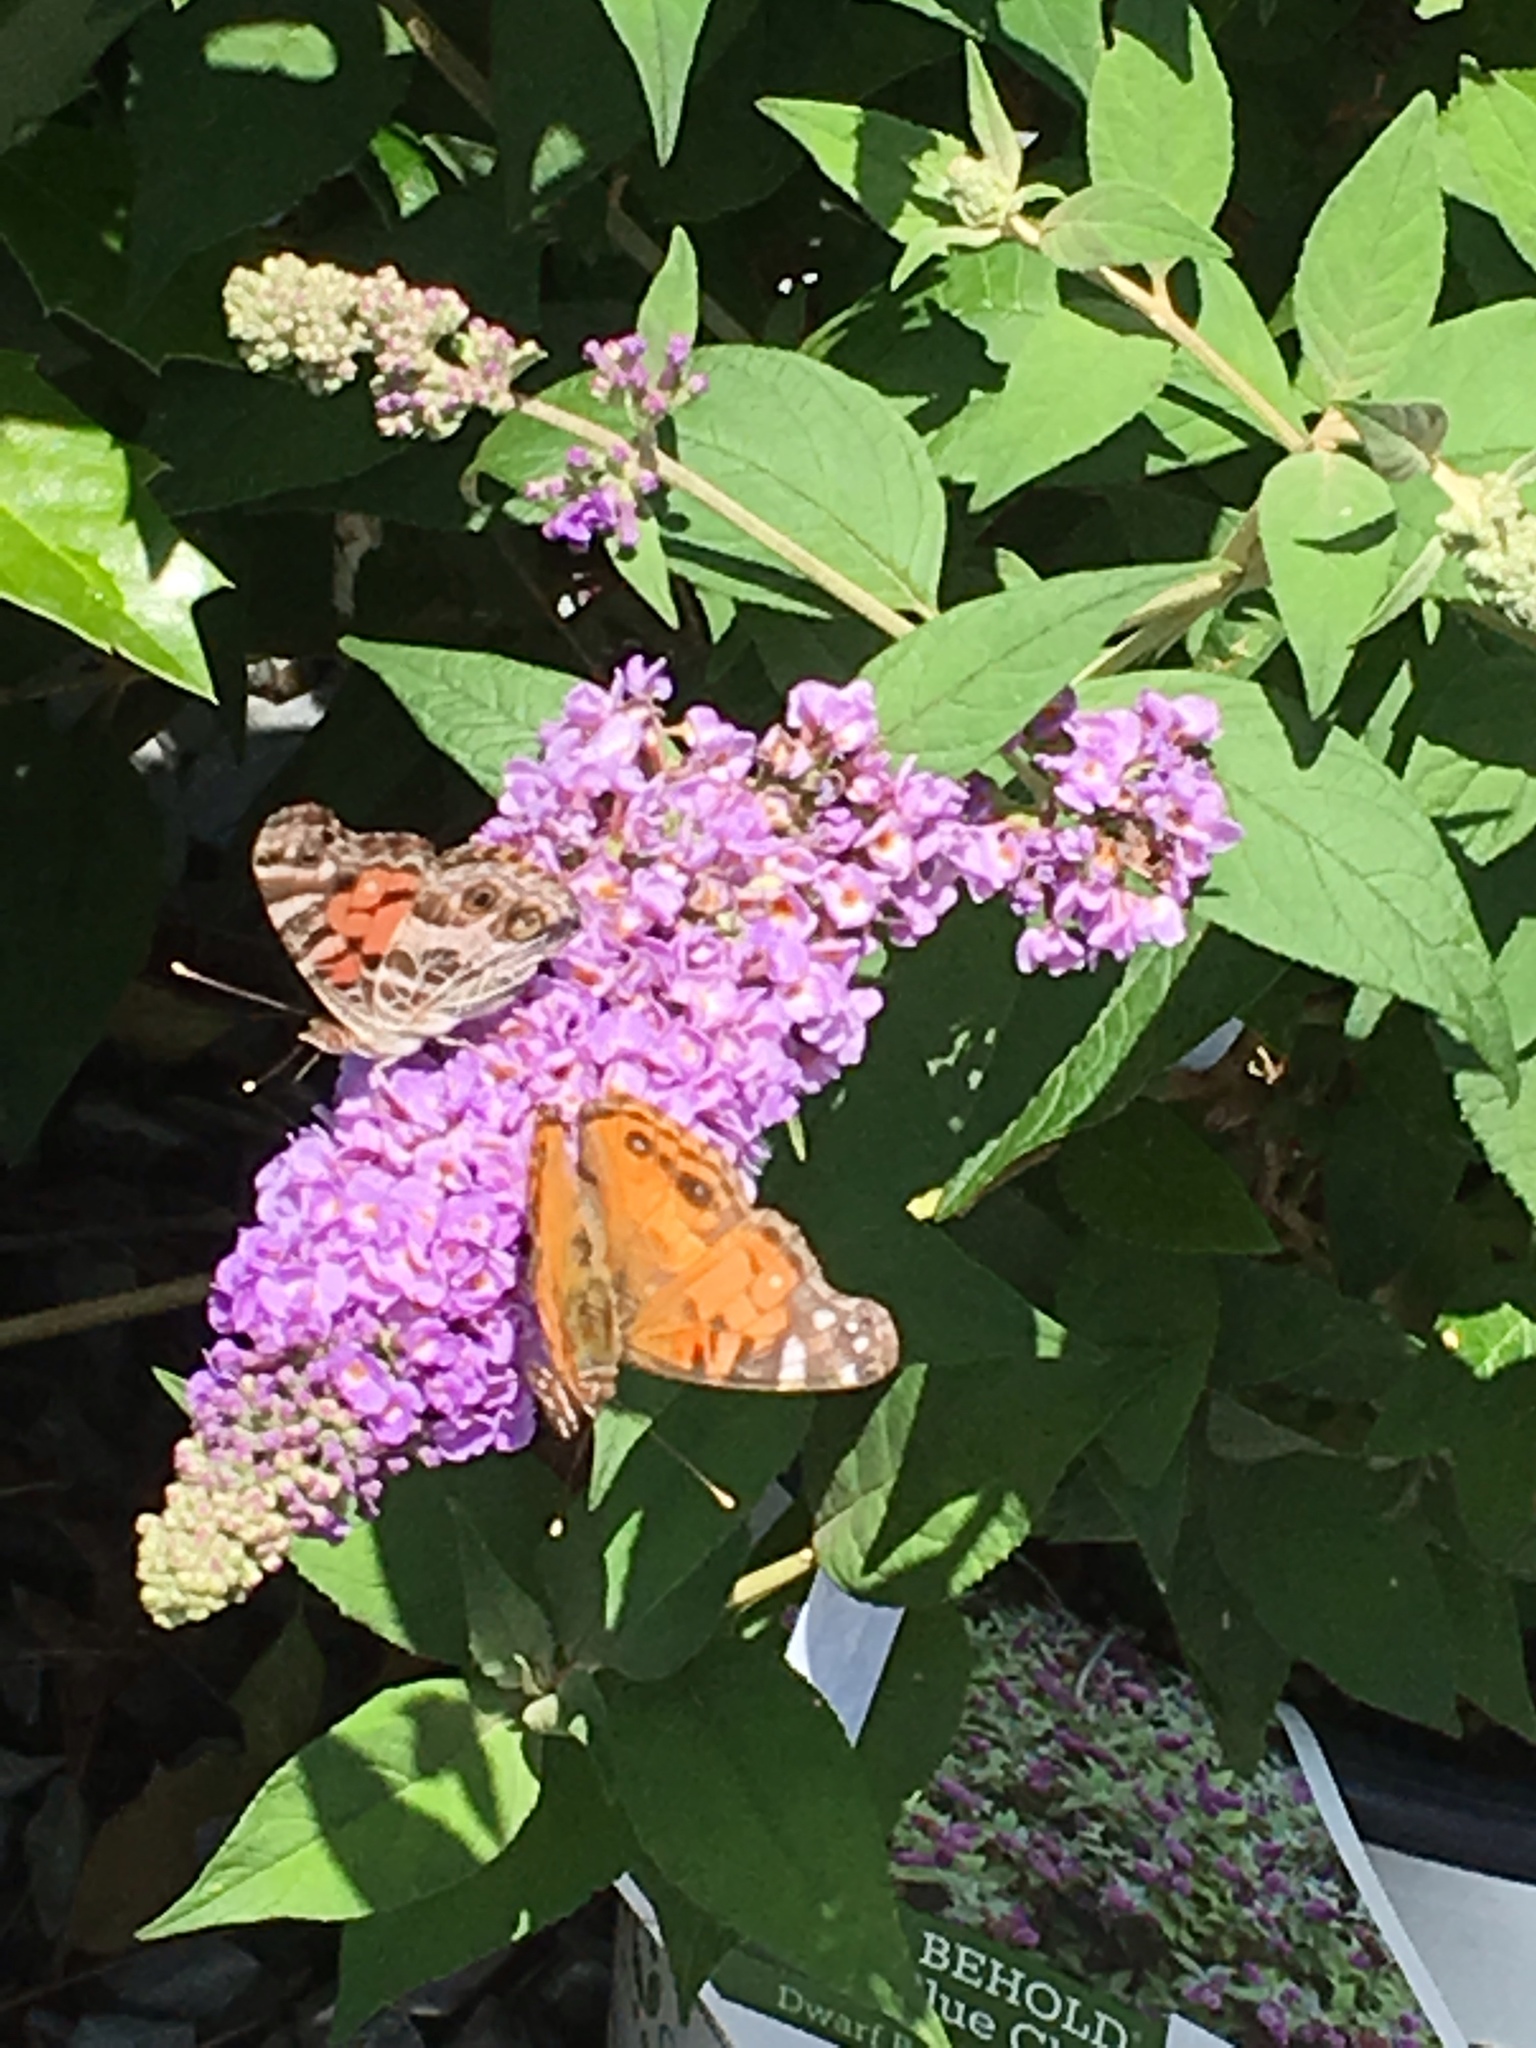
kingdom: Animalia
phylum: Arthropoda
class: Insecta
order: Lepidoptera
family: Nymphalidae
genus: Vanessa
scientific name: Vanessa virginiensis
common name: American lady
